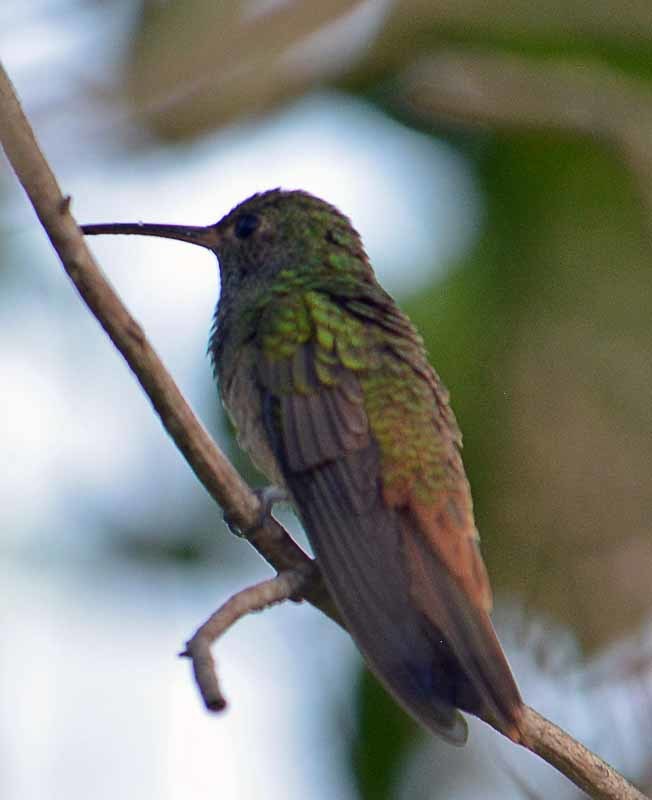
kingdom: Animalia
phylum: Chordata
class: Aves
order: Apodiformes
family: Trochilidae
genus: Amazilia
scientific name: Amazilia yucatanensis
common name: Buff-bellied hummingbird
